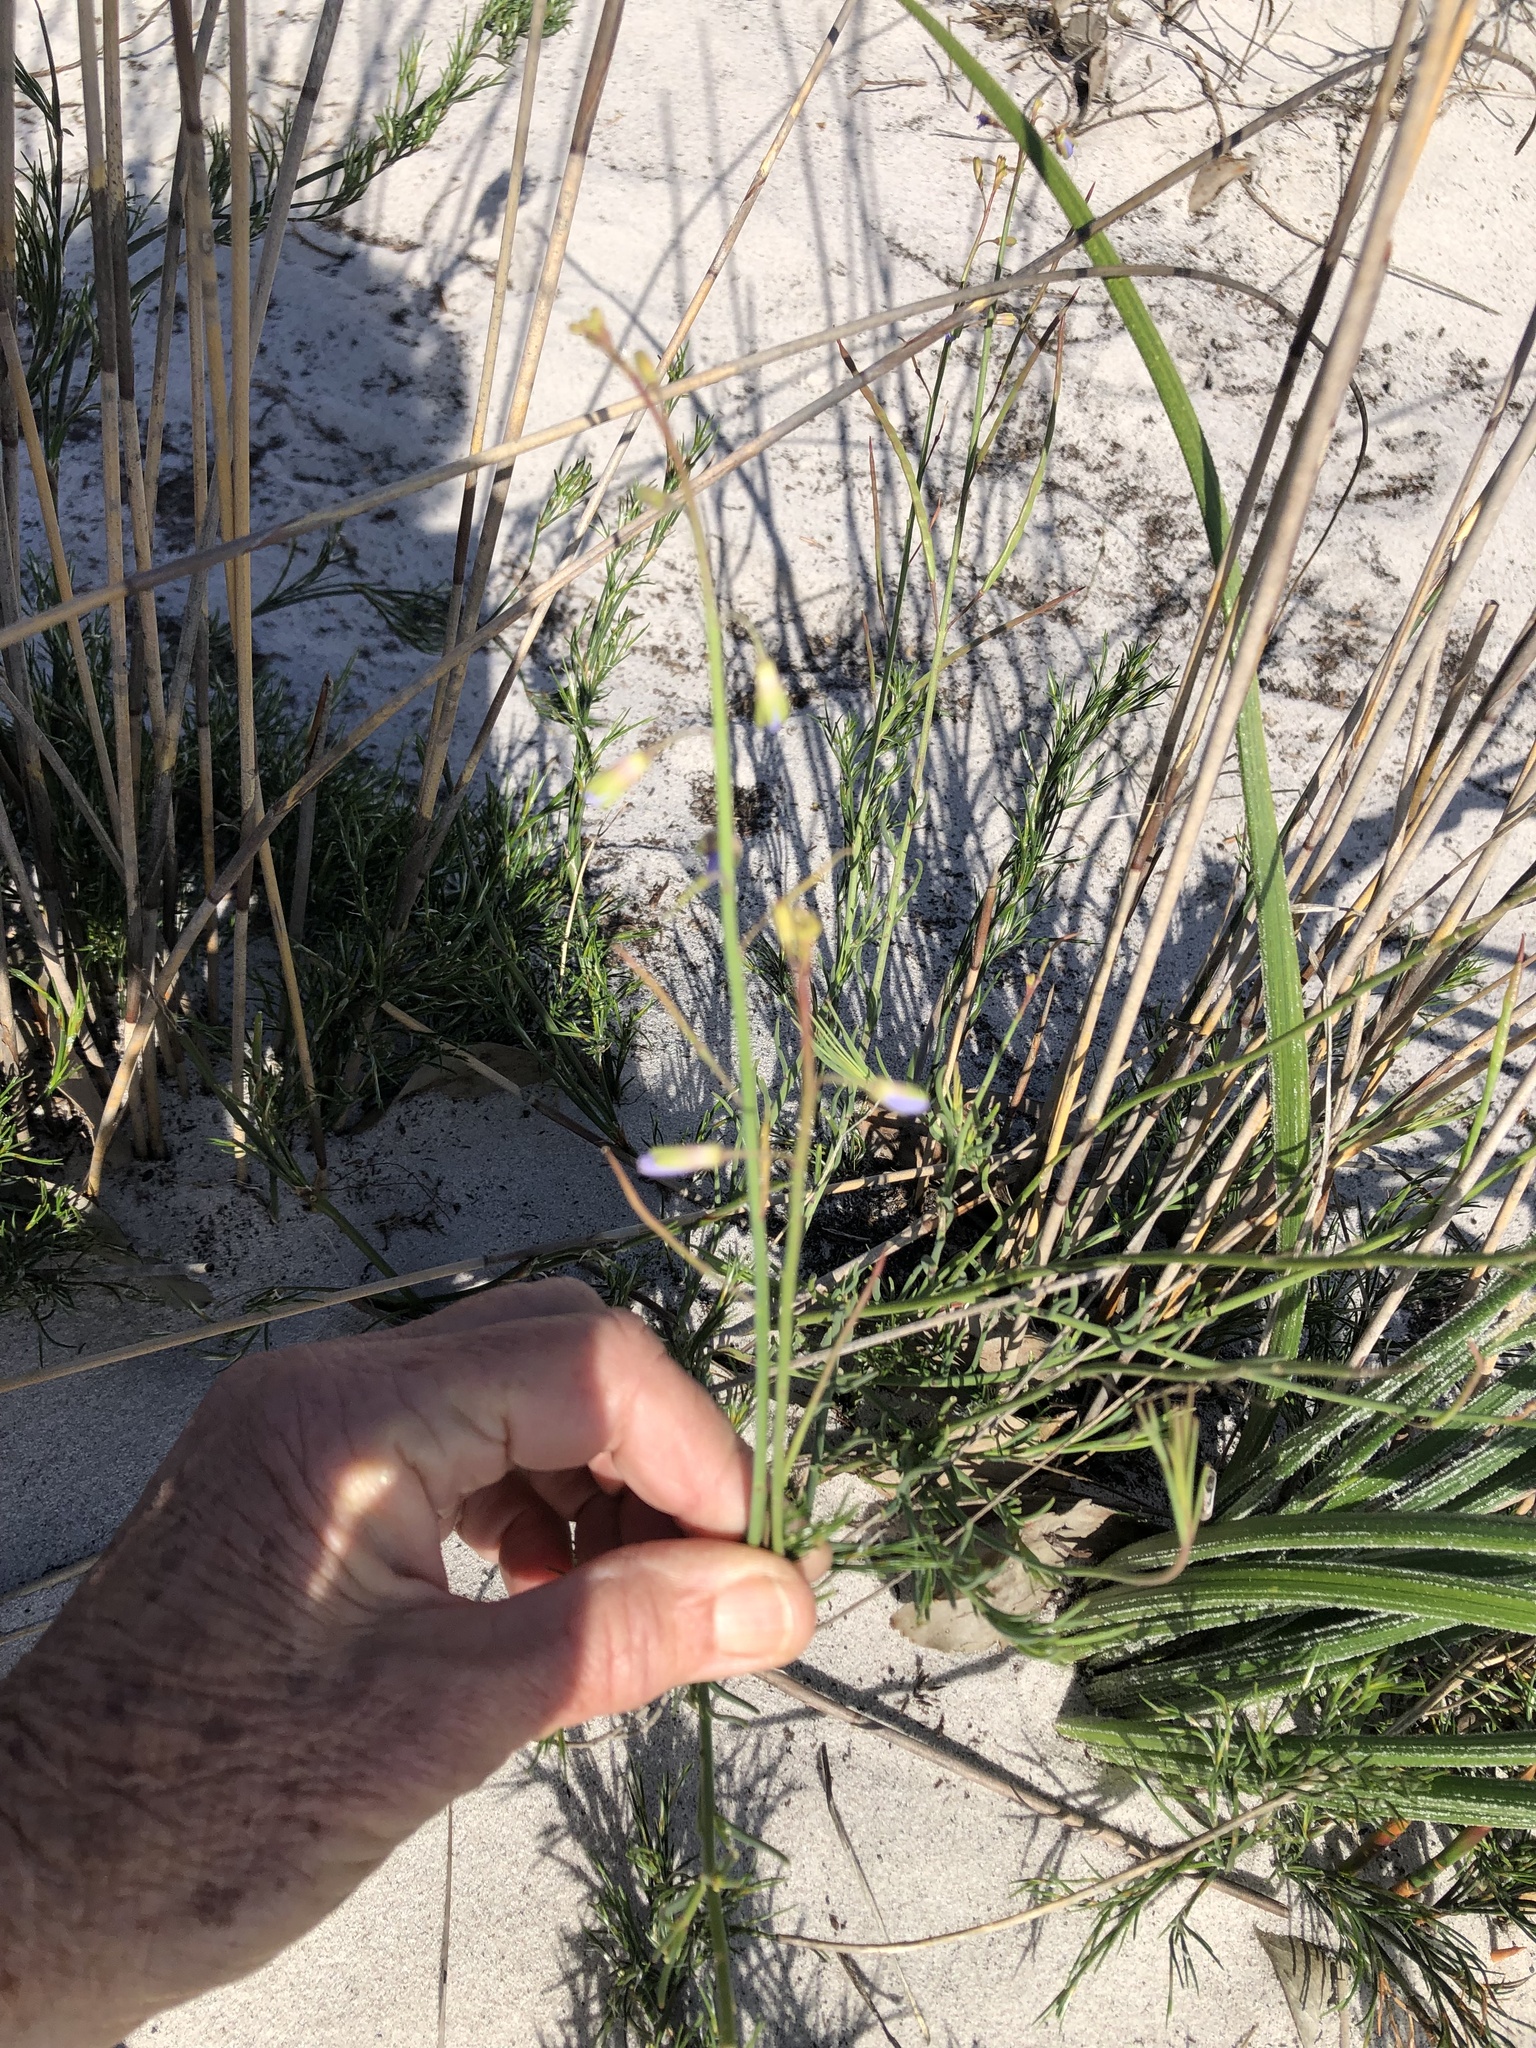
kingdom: Plantae
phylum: Tracheophyta
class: Magnoliopsida
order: Brassicales
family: Brassicaceae
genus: Heliophila
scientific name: Heliophila linearis
